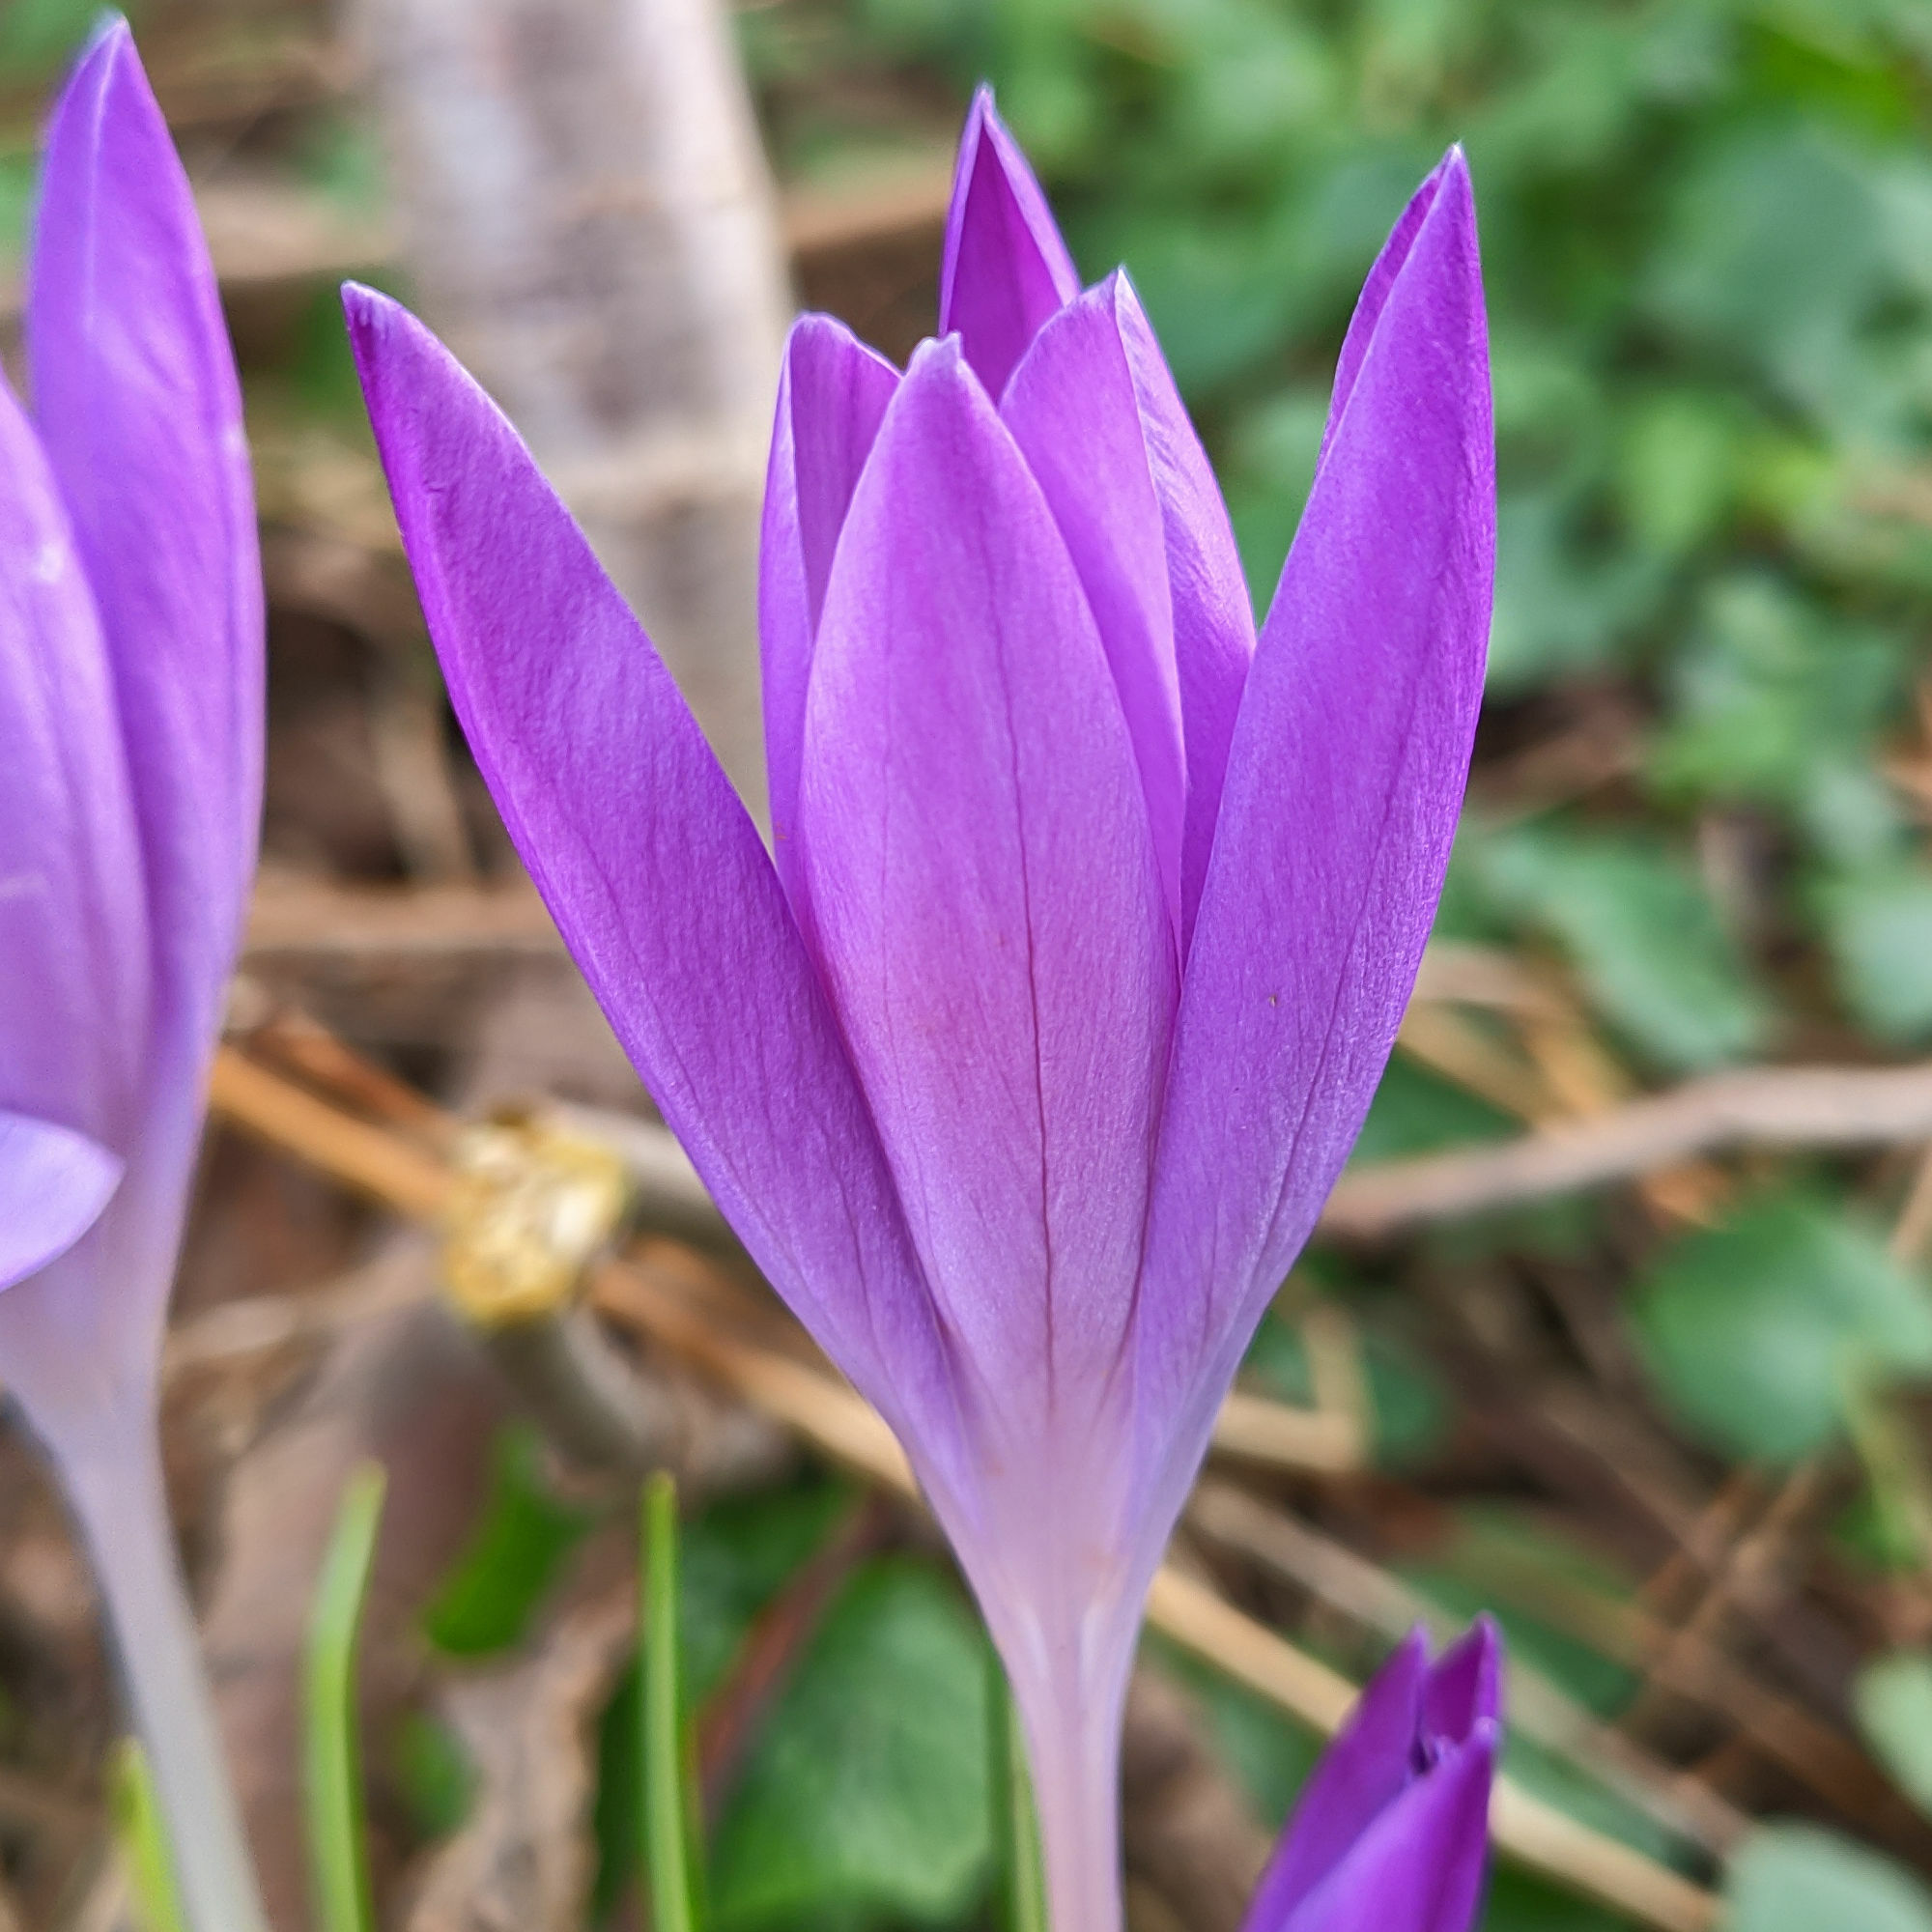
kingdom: Plantae
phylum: Tracheophyta
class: Liliopsida
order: Asparagales
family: Iridaceae
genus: Crocus
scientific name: Crocus tommasinianus
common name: Early crocus
